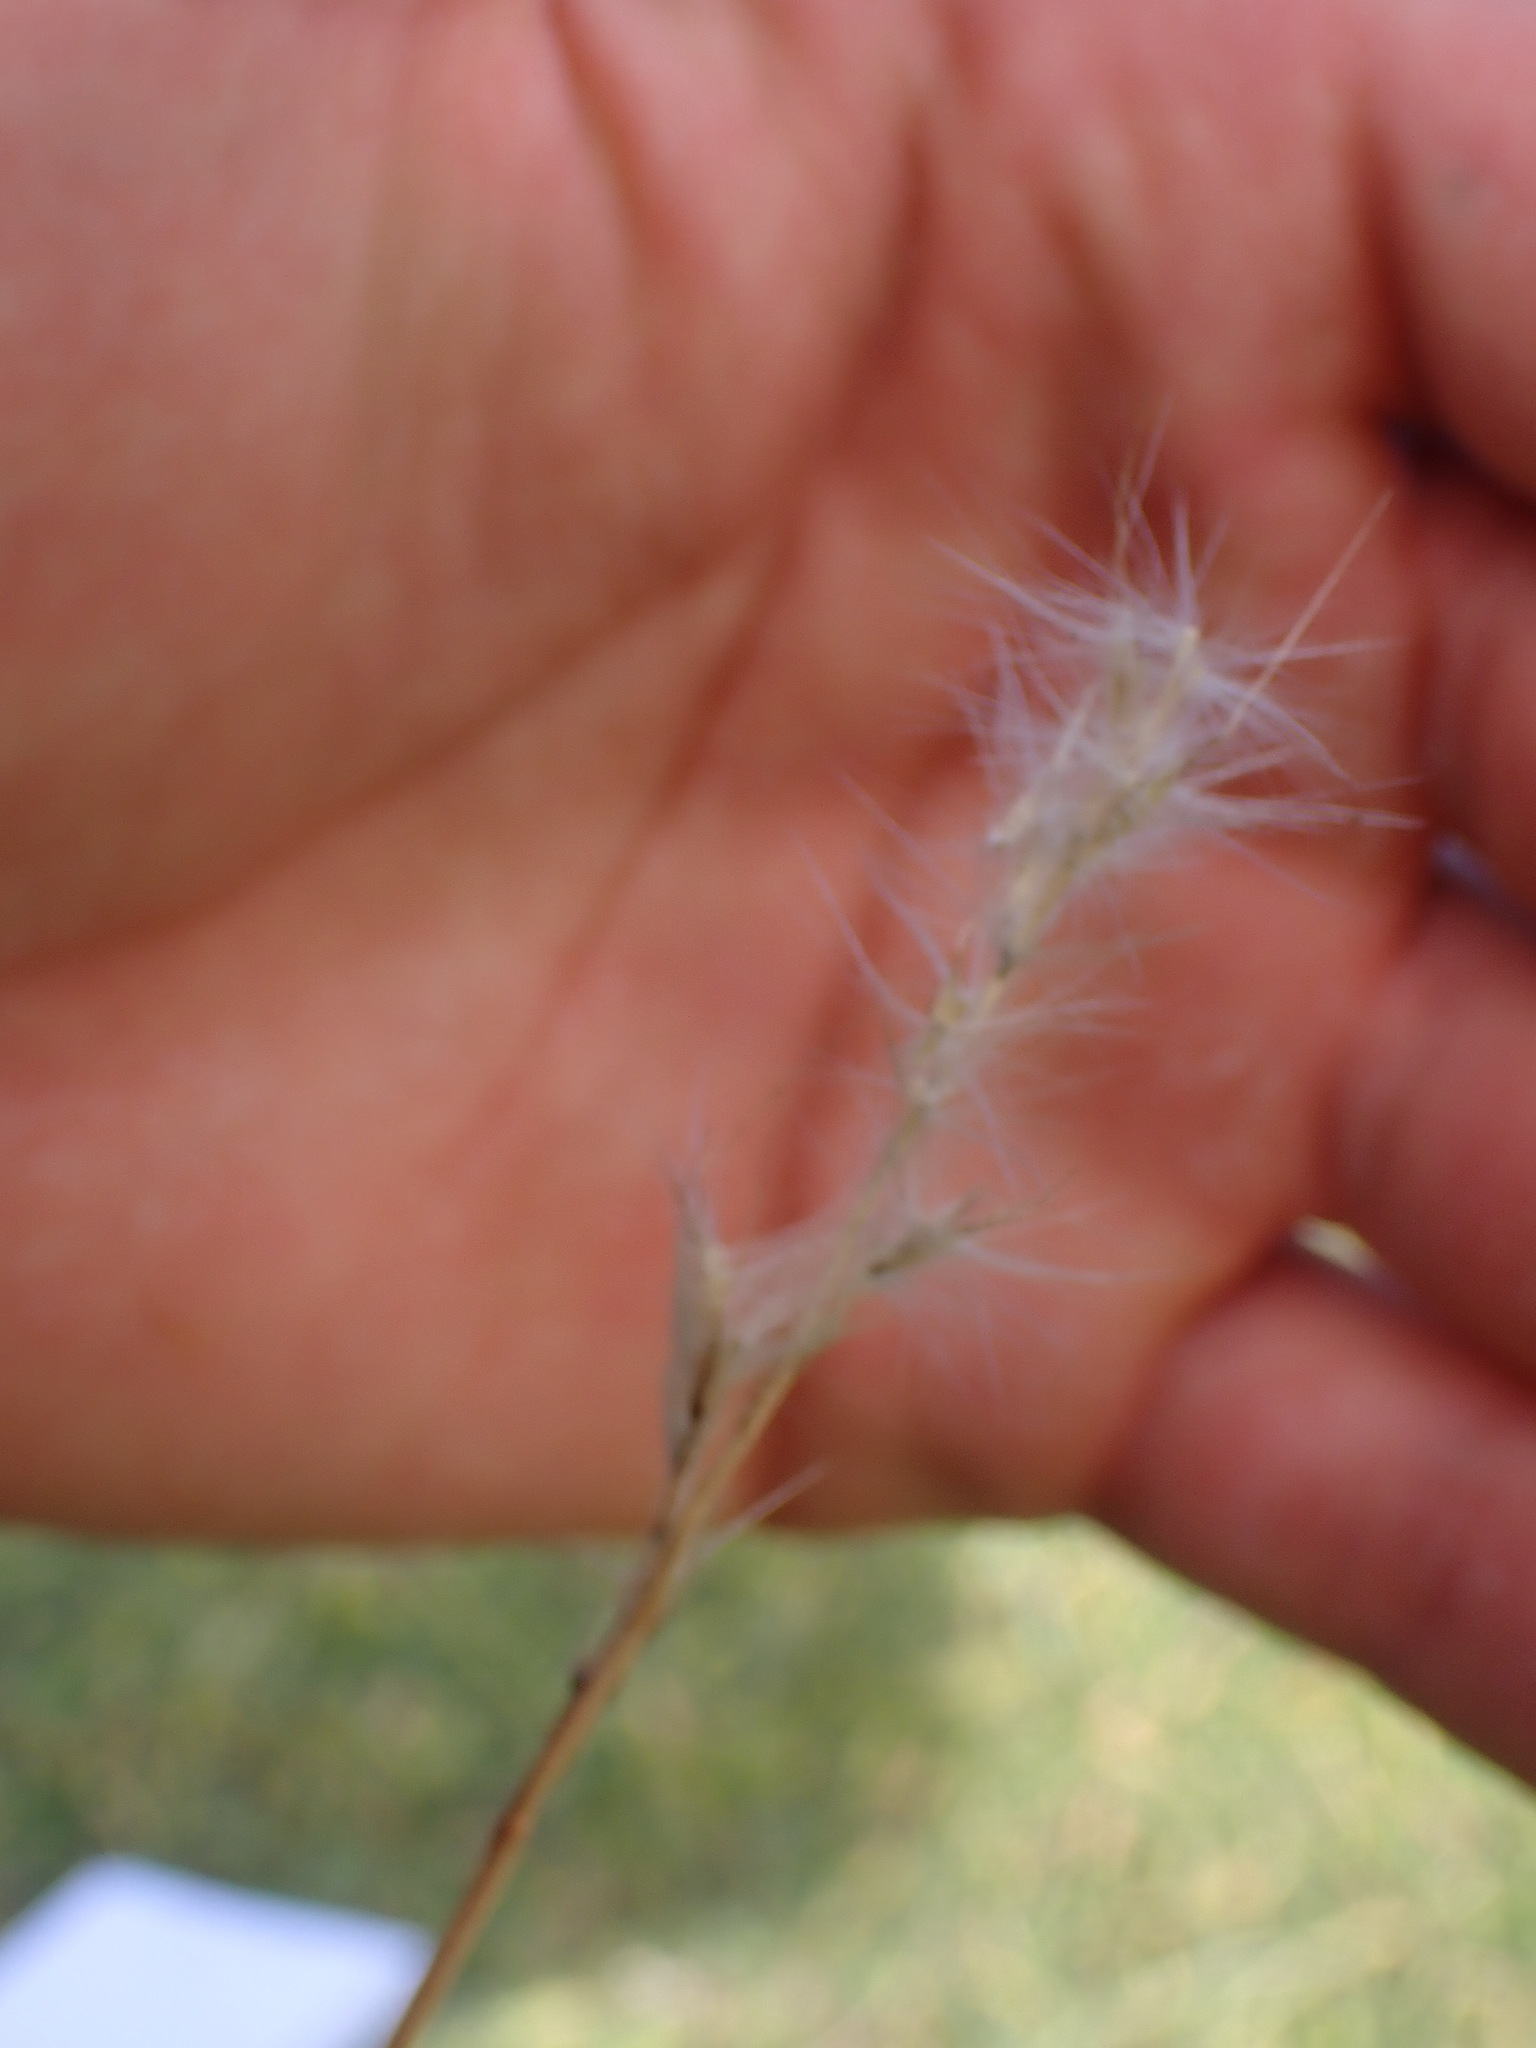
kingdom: Plantae
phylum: Tracheophyta
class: Liliopsida
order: Poales
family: Poaceae
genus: Bothriochloa
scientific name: Bothriochloa barbinodis
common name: Cane bluestem
